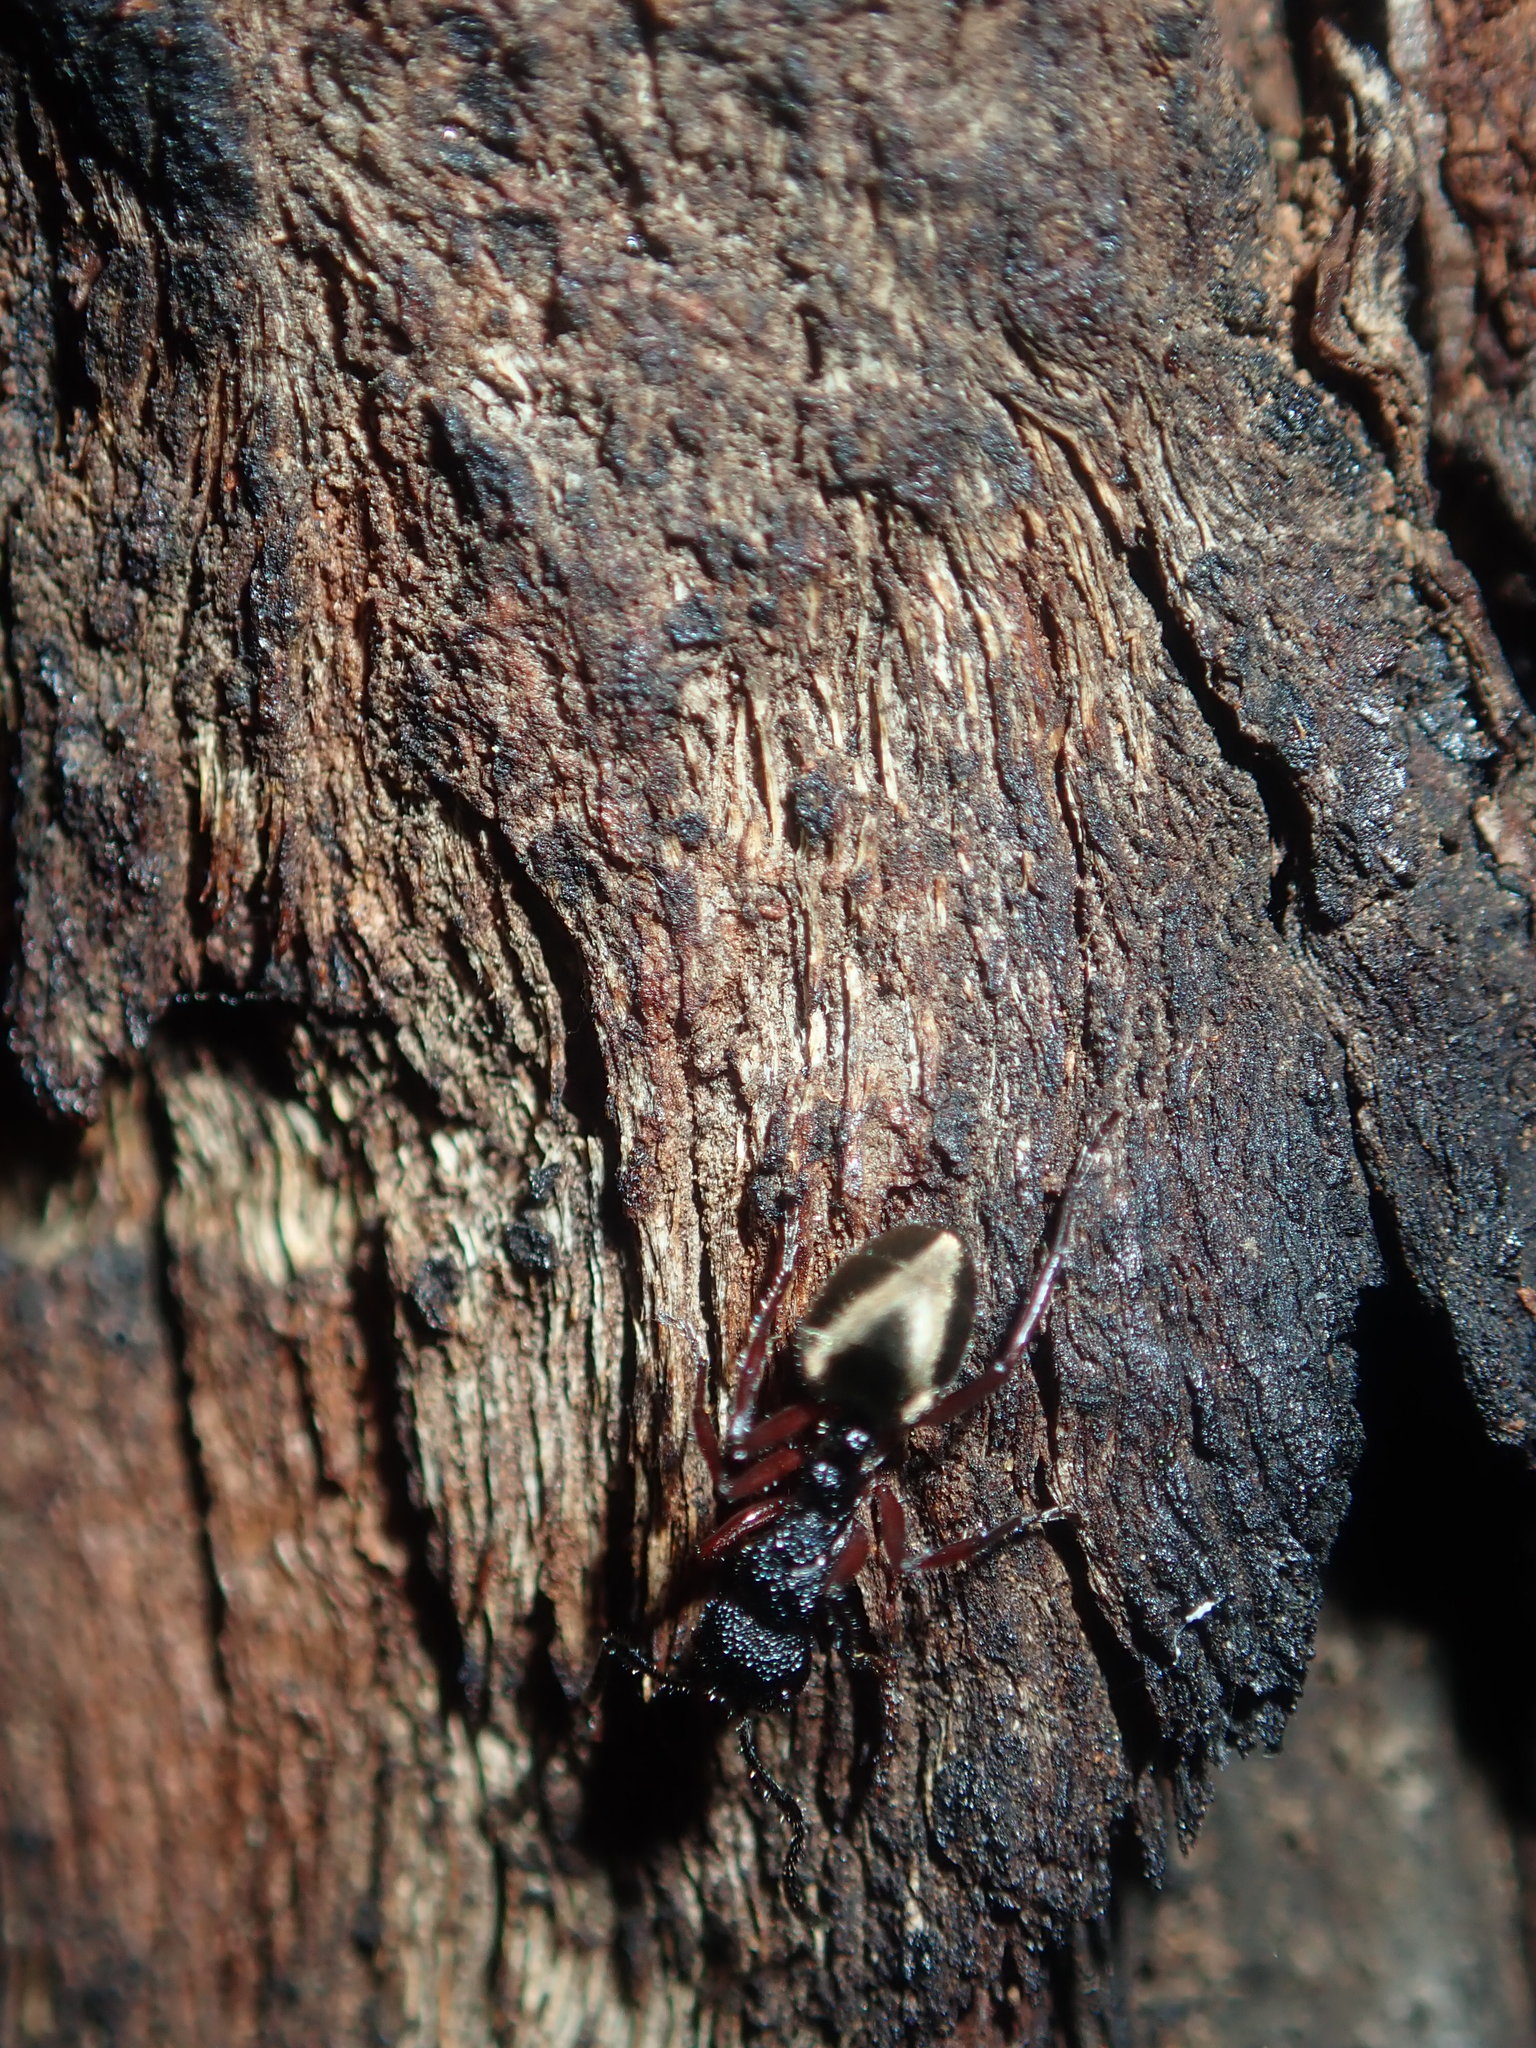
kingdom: Animalia
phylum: Arthropoda
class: Insecta
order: Hymenoptera
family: Formicidae
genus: Dolichoderus
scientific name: Dolichoderus scabridus
